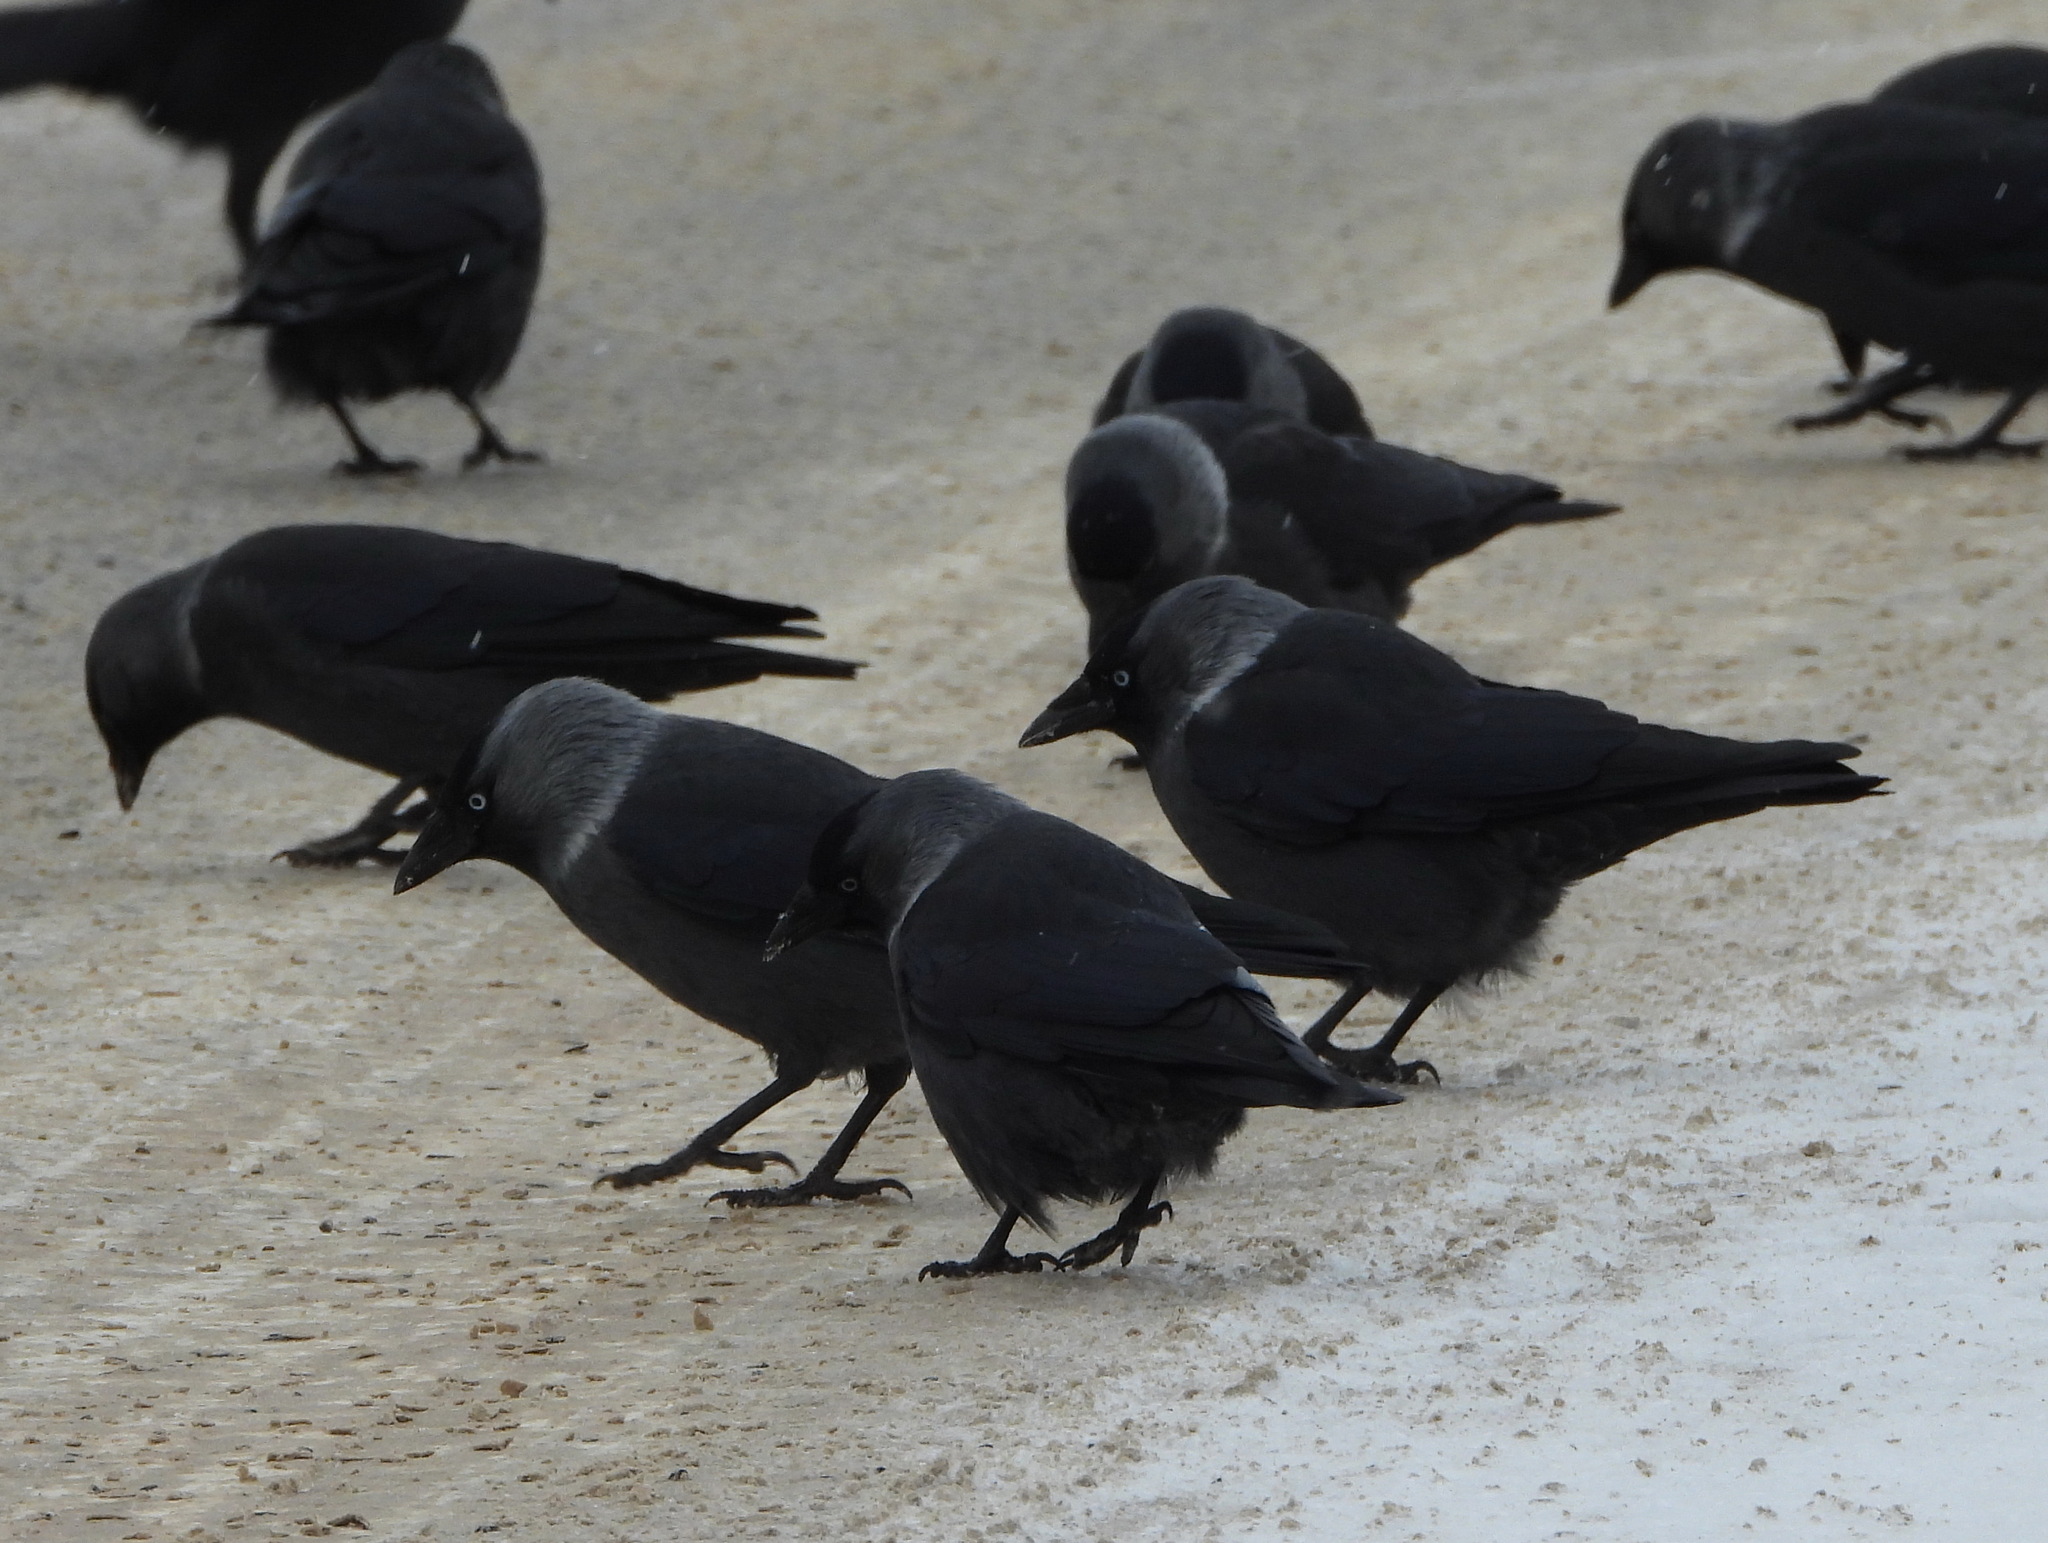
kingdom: Animalia
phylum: Chordata
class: Aves
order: Passeriformes
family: Corvidae
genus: Coloeus
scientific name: Coloeus monedula
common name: Western jackdaw
